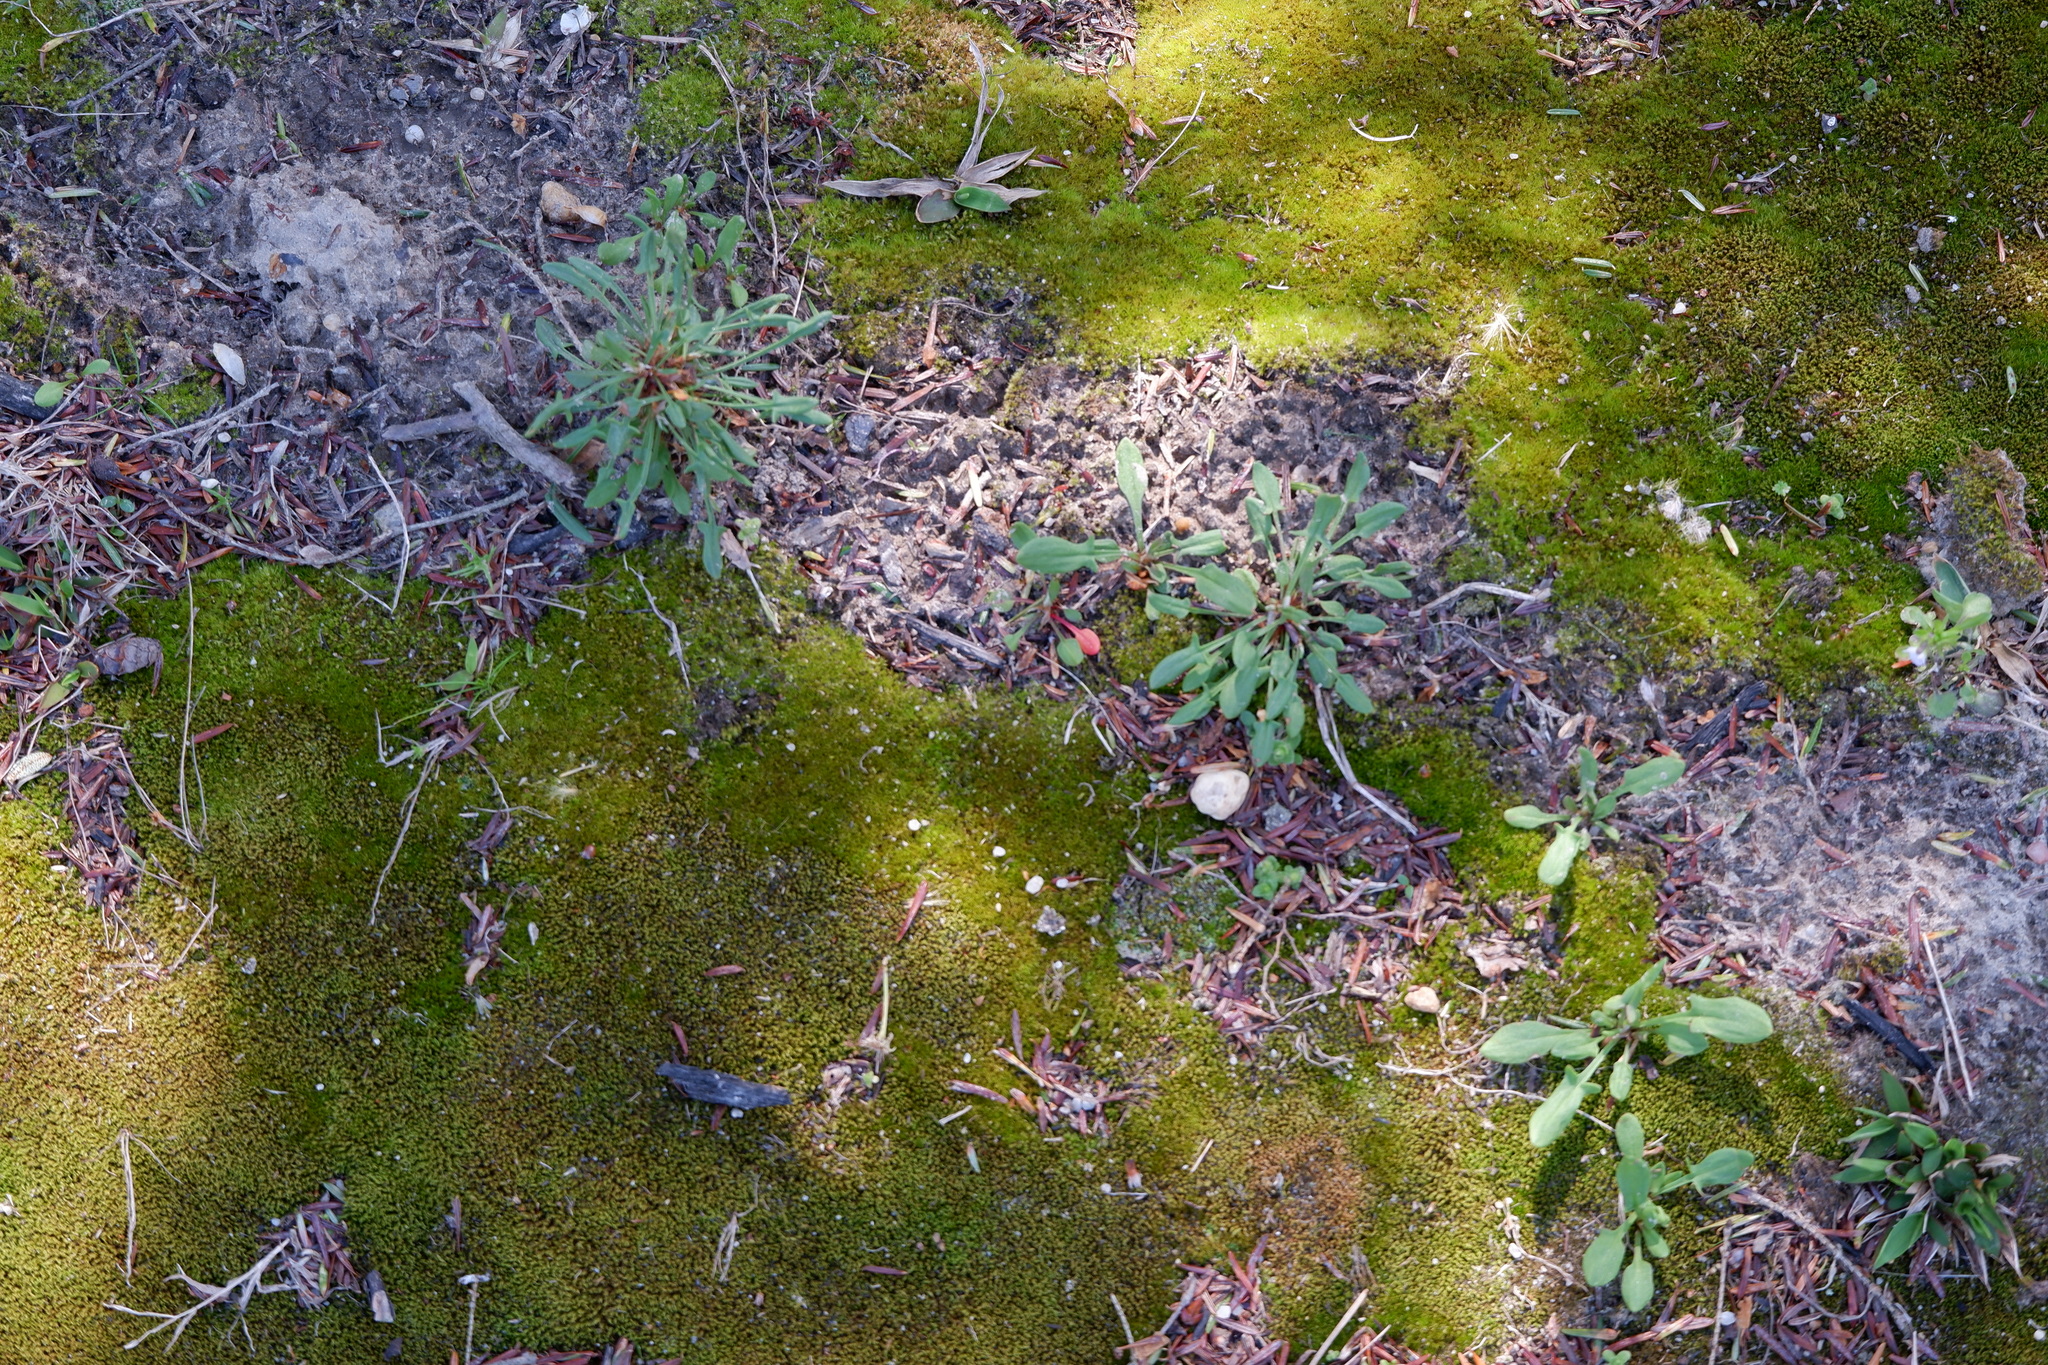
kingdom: Plantae
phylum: Tracheophyta
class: Magnoliopsida
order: Caryophyllales
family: Polygonaceae
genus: Rumex
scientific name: Rumex acetosella
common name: Common sheep sorrel
